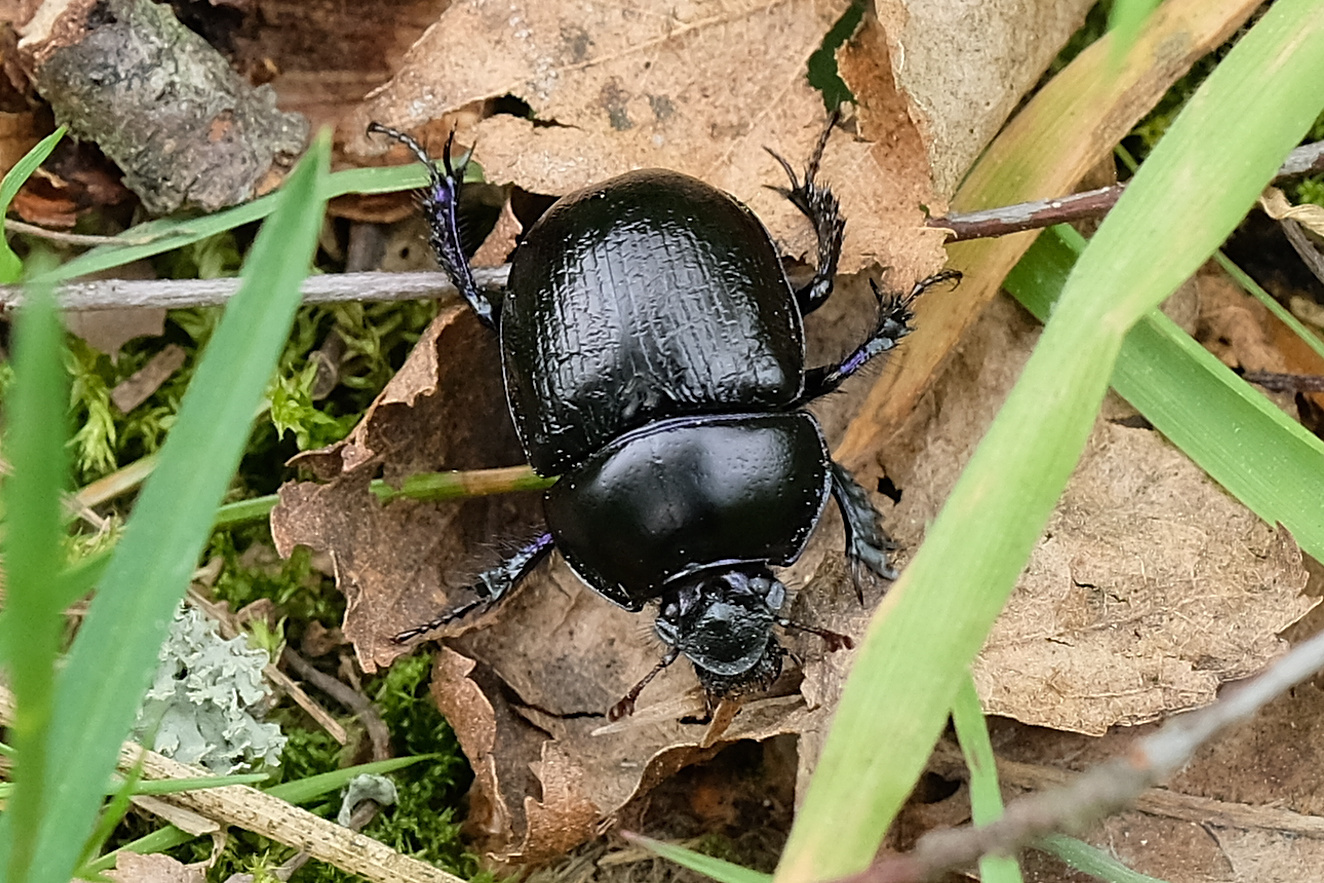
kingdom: Animalia
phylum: Arthropoda
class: Insecta
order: Coleoptera
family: Geotrupidae
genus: Anoplotrupes
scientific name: Anoplotrupes stercorosus
